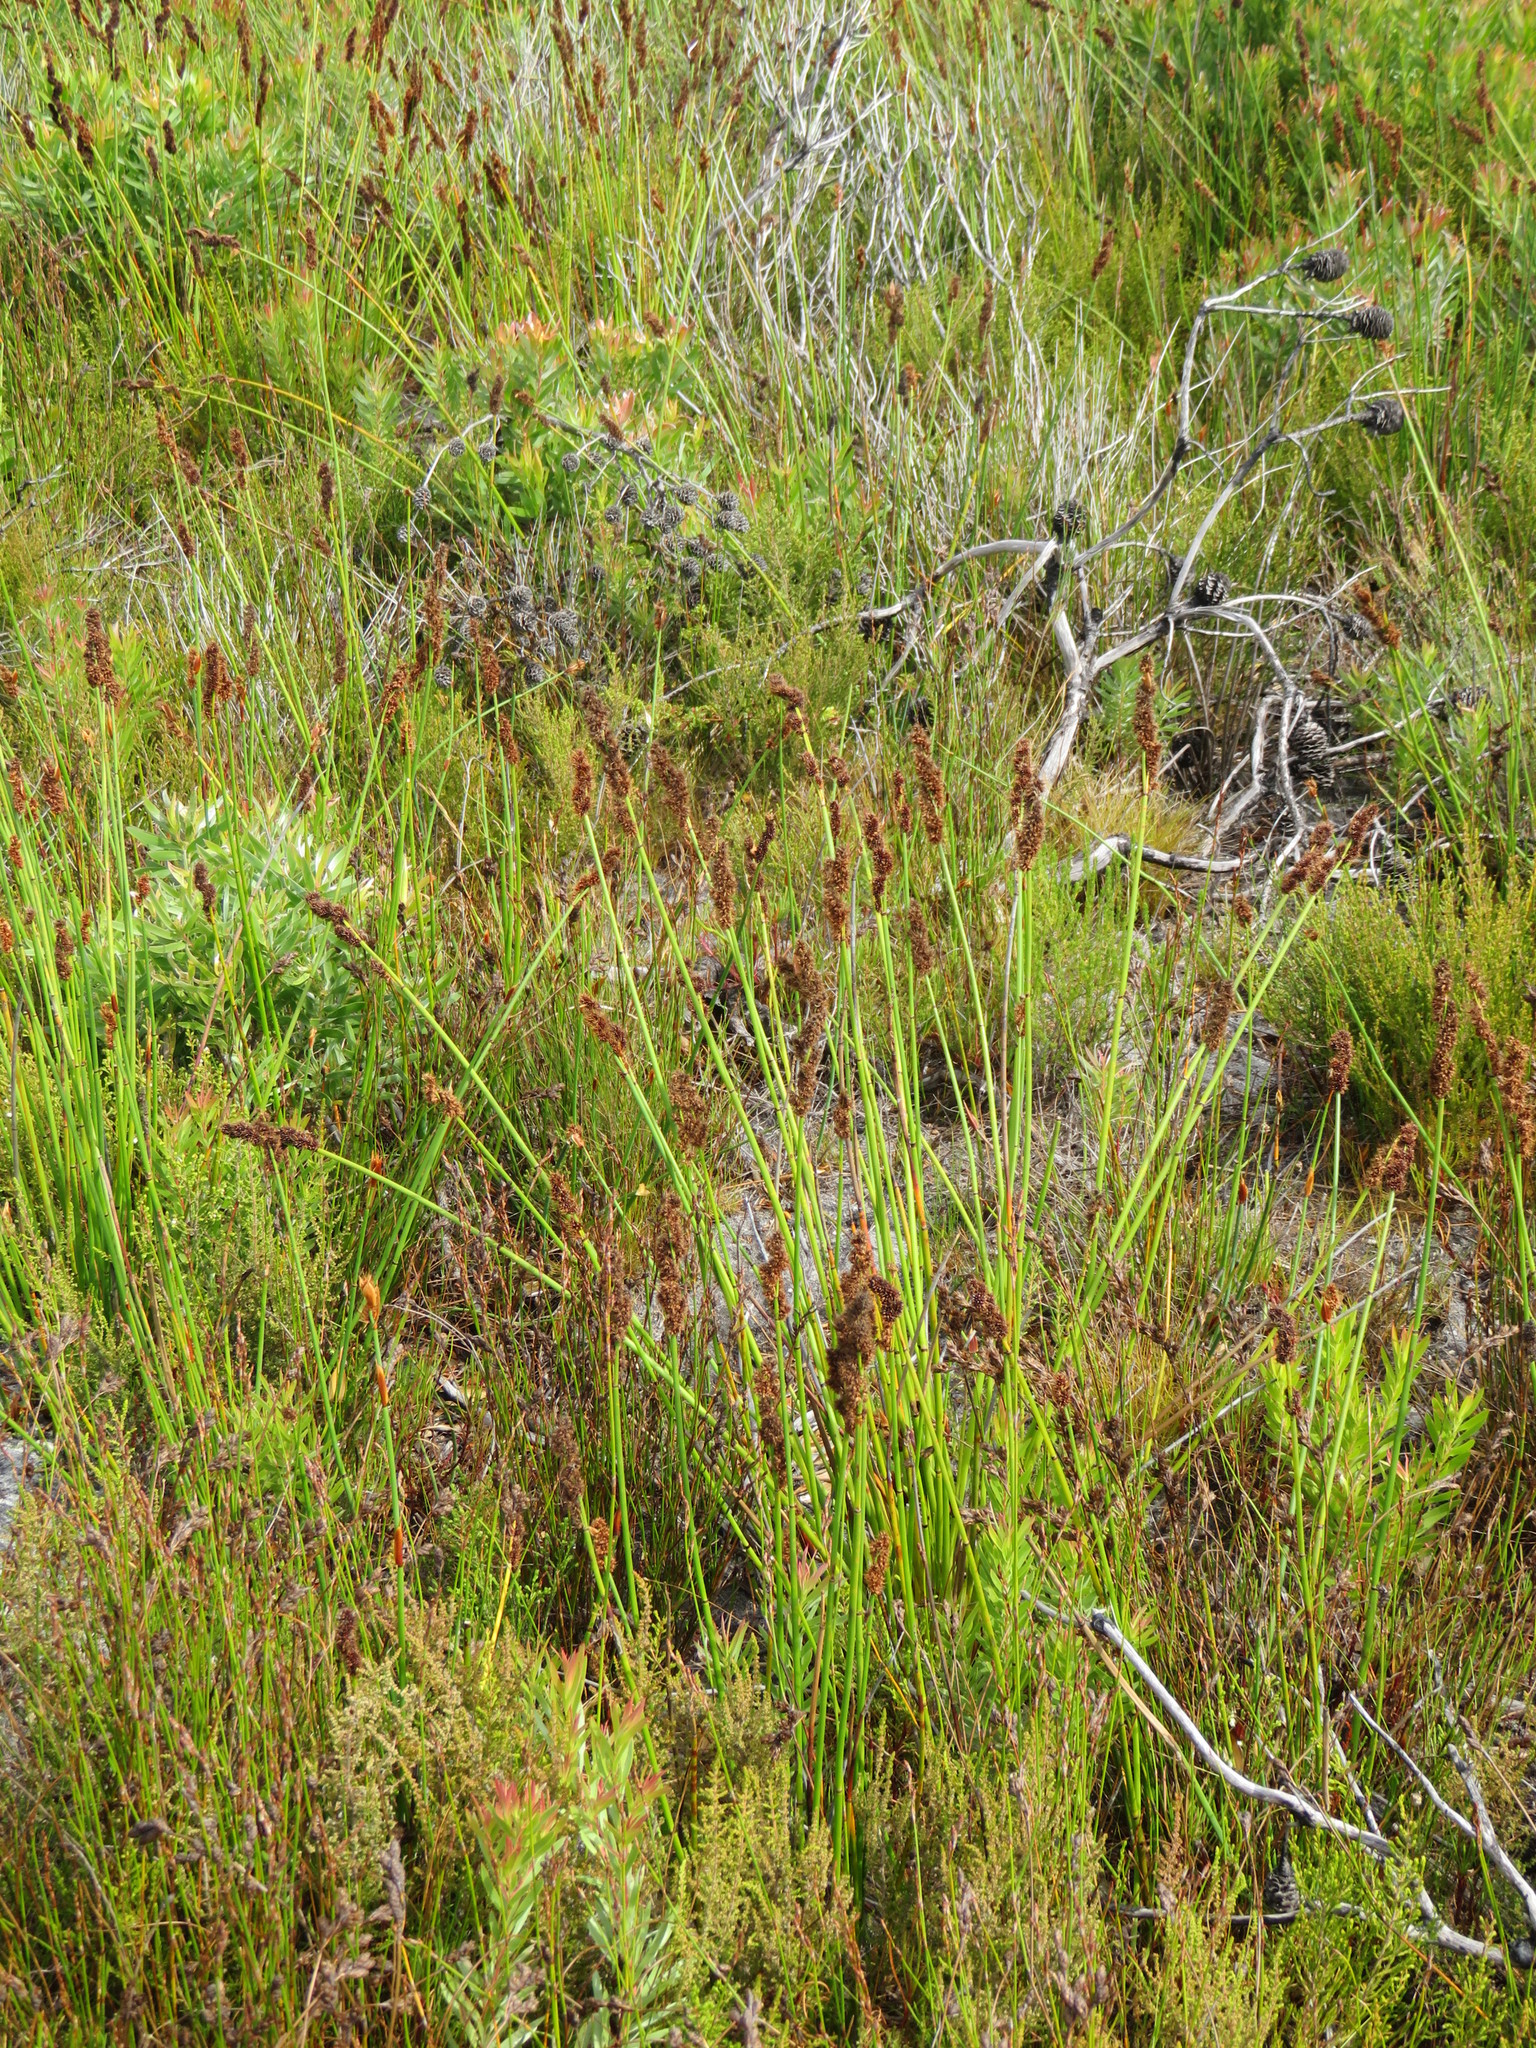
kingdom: Plantae
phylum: Tracheophyta
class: Liliopsida
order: Poales
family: Restionaceae
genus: Elegia
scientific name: Elegia cuspidata
